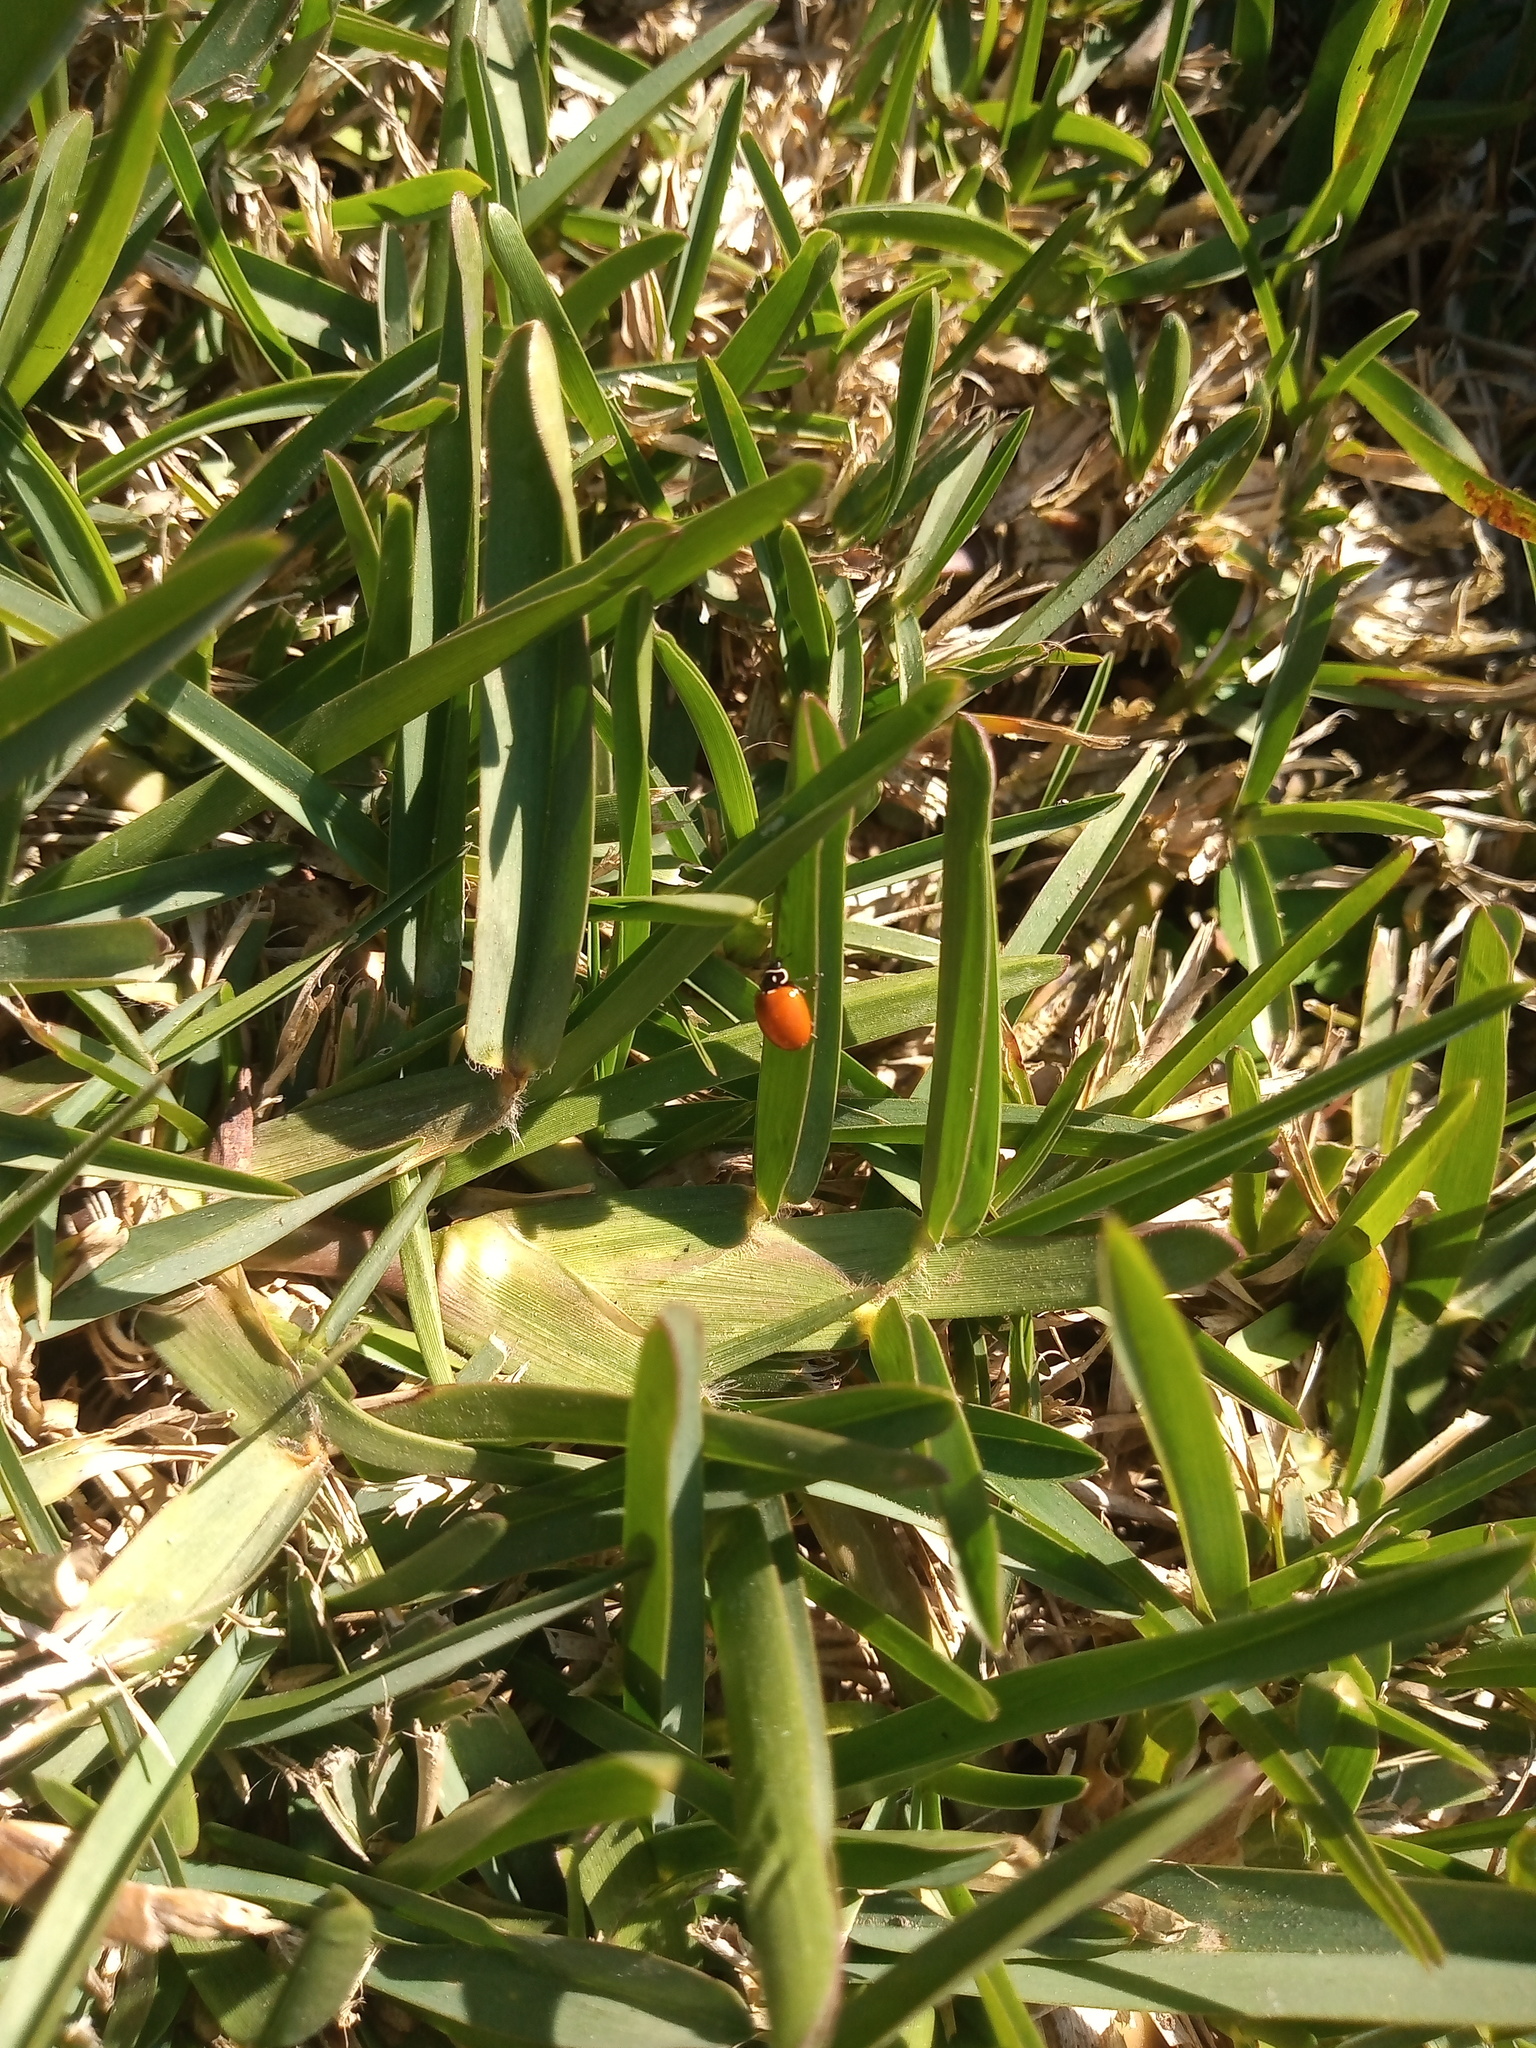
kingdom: Animalia
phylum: Arthropoda
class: Insecta
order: Coleoptera
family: Coccinellidae
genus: Cycloneda
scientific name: Cycloneda emarginata
